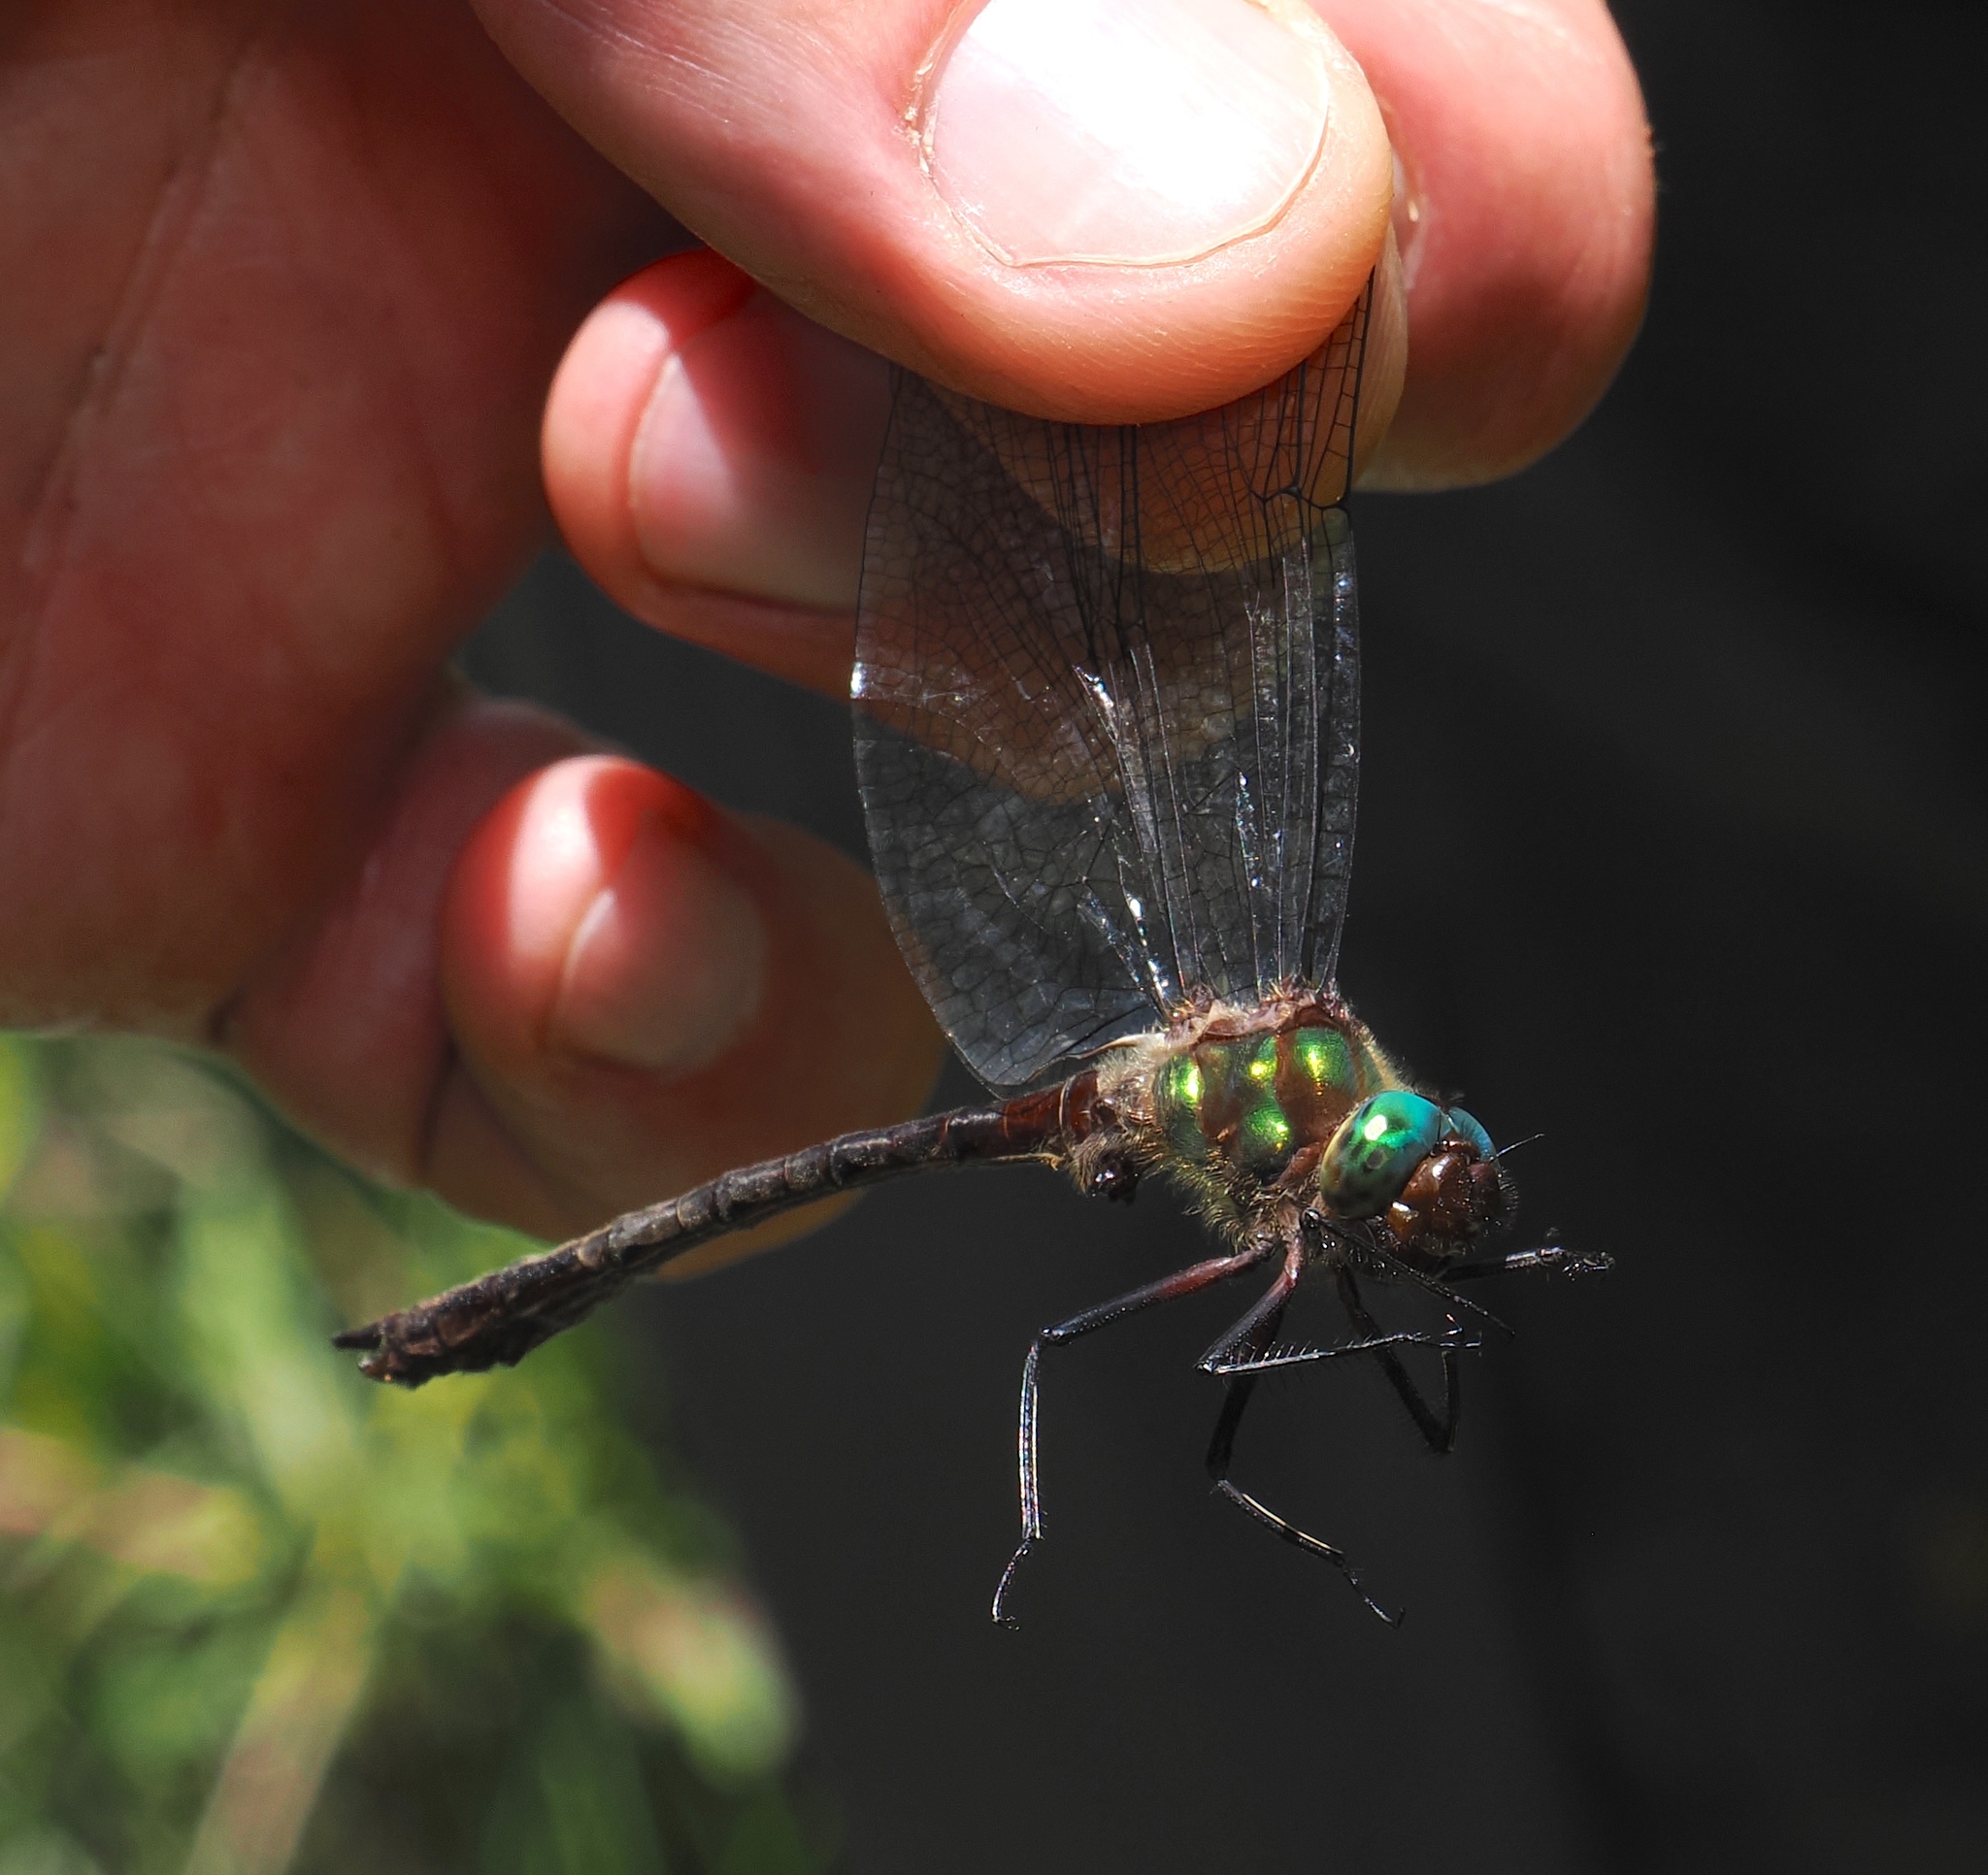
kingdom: Animalia
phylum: Arthropoda
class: Insecta
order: Odonata
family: Corduliidae
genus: Neocordulia
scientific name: Neocordulia mambucabensis
